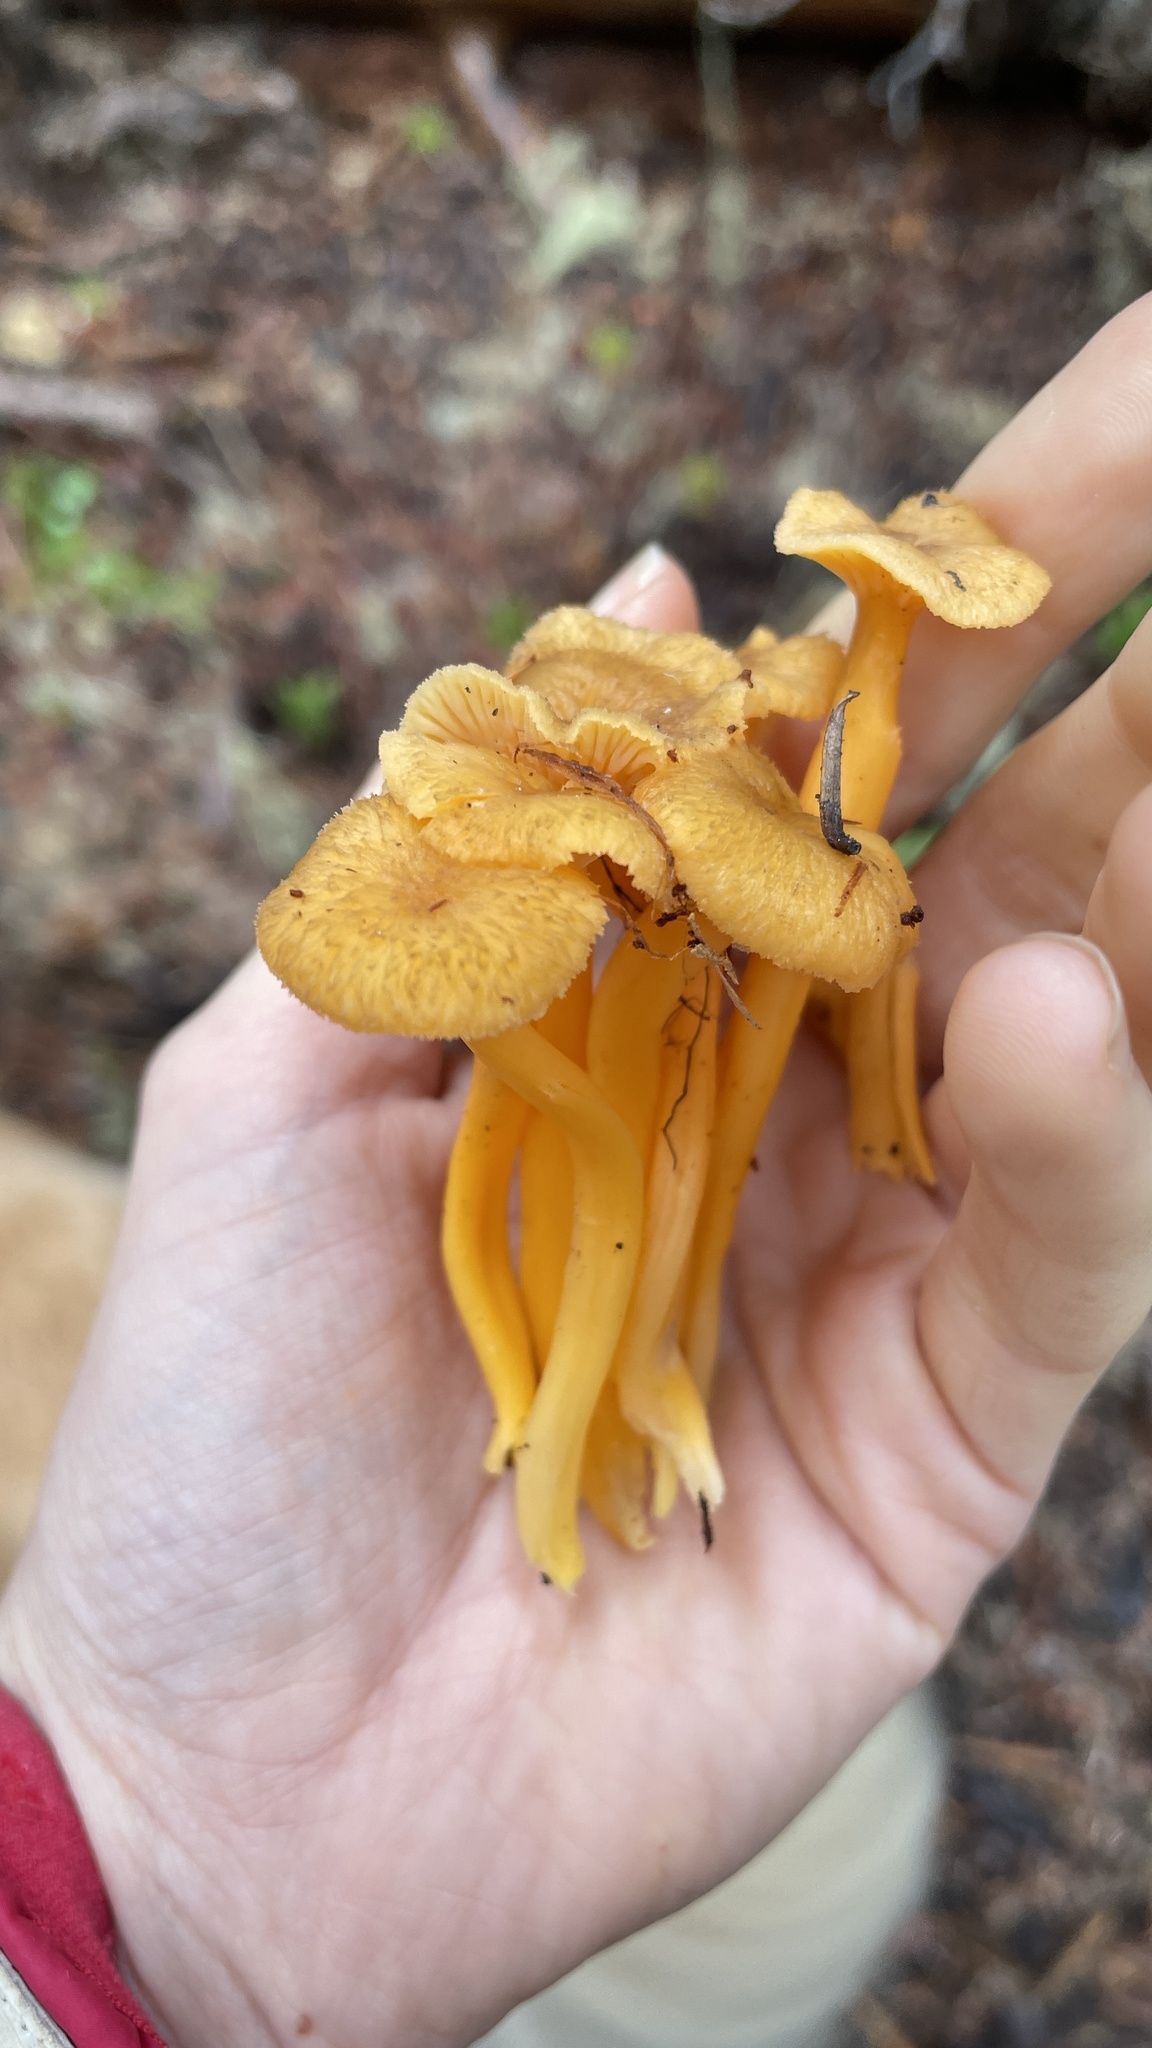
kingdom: Fungi
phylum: Basidiomycota
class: Agaricomycetes
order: Cantharellales
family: Hydnaceae
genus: Craterellus
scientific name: Craterellus tubaeformis
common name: Yellowfoot
